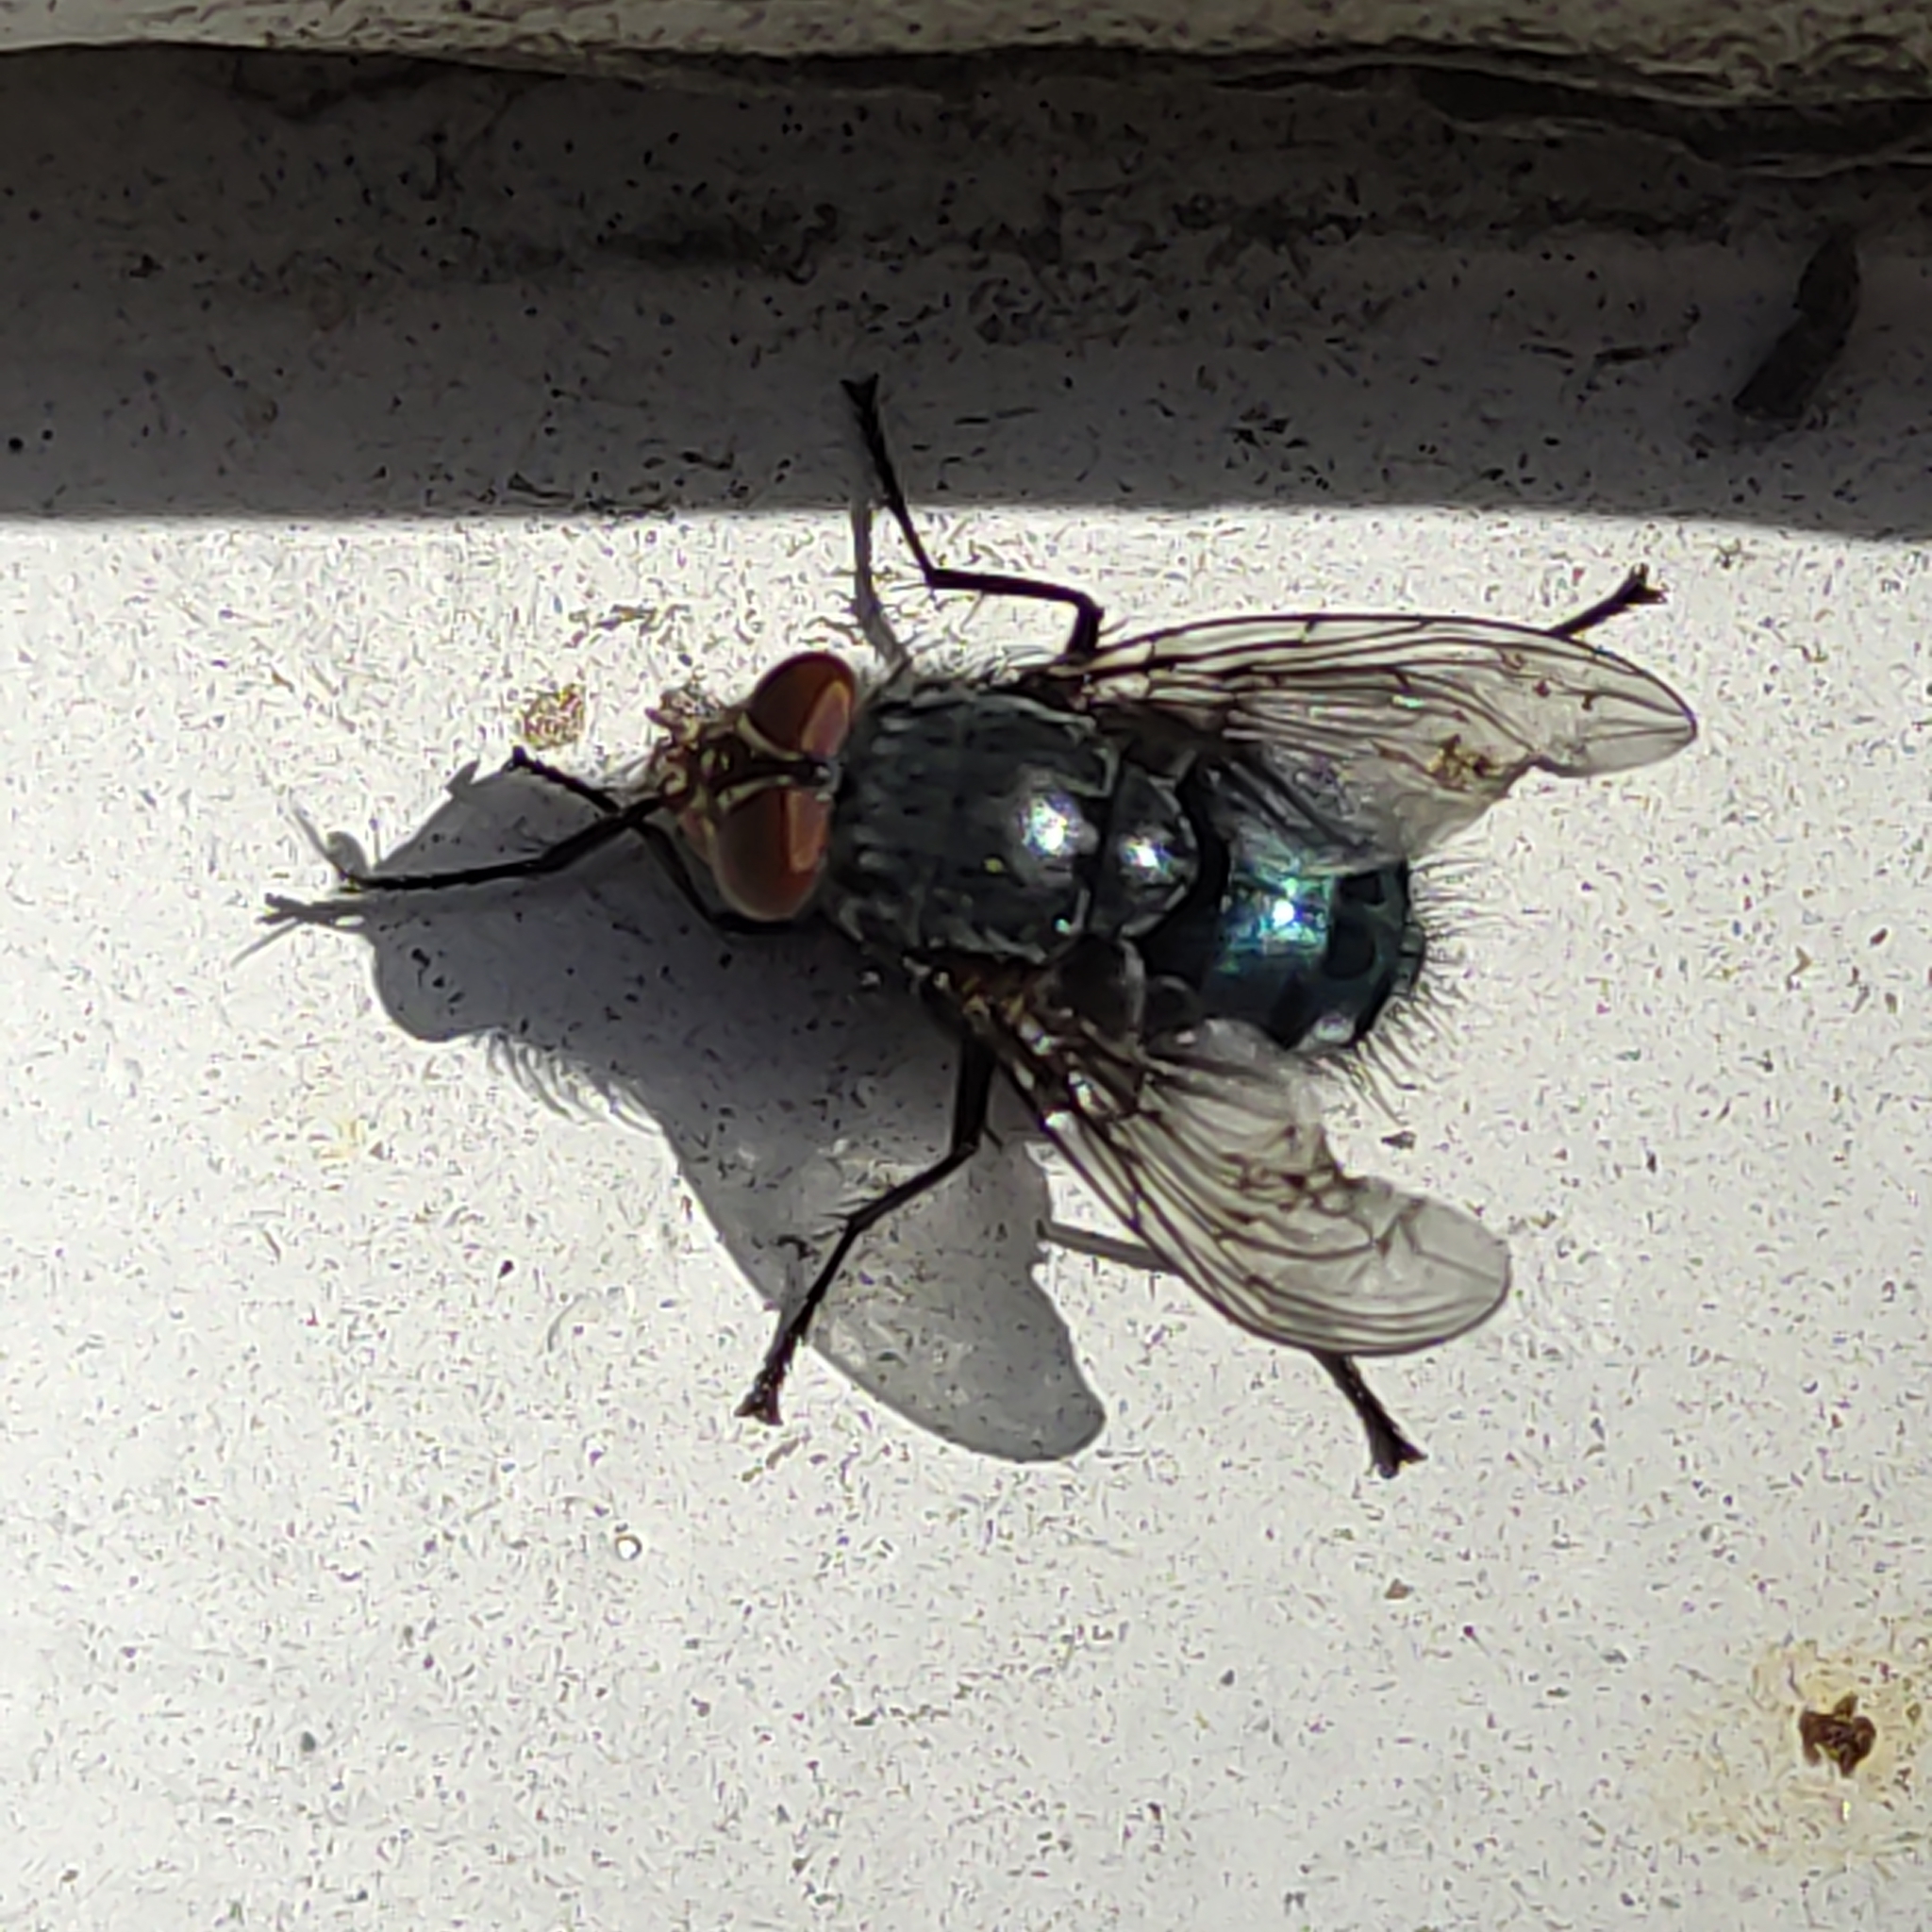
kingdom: Animalia
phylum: Arthropoda
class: Insecta
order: Diptera
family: Calliphoridae
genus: Calliphora
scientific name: Calliphora vicina
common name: Common blow flie
